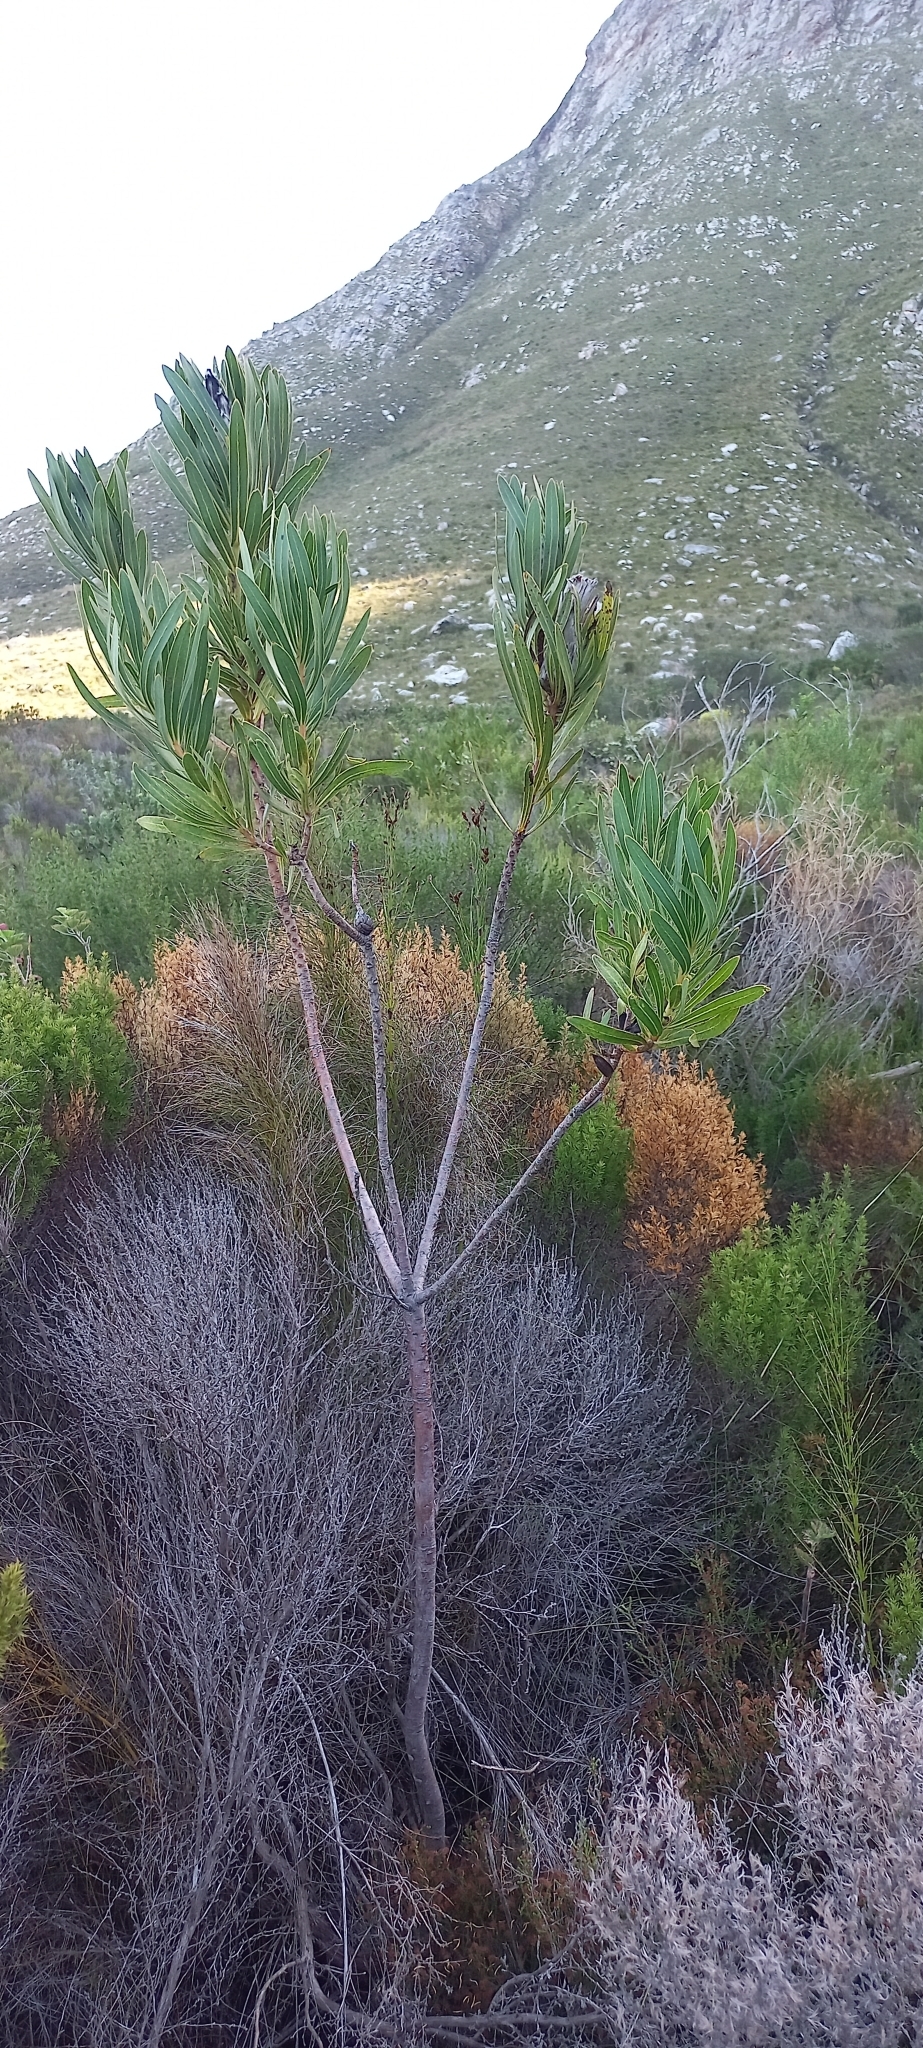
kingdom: Plantae
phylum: Tracheophyta
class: Magnoliopsida
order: Proteales
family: Proteaceae
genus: Protea
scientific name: Protea lepidocarpodendron
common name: Black-bearded protea
